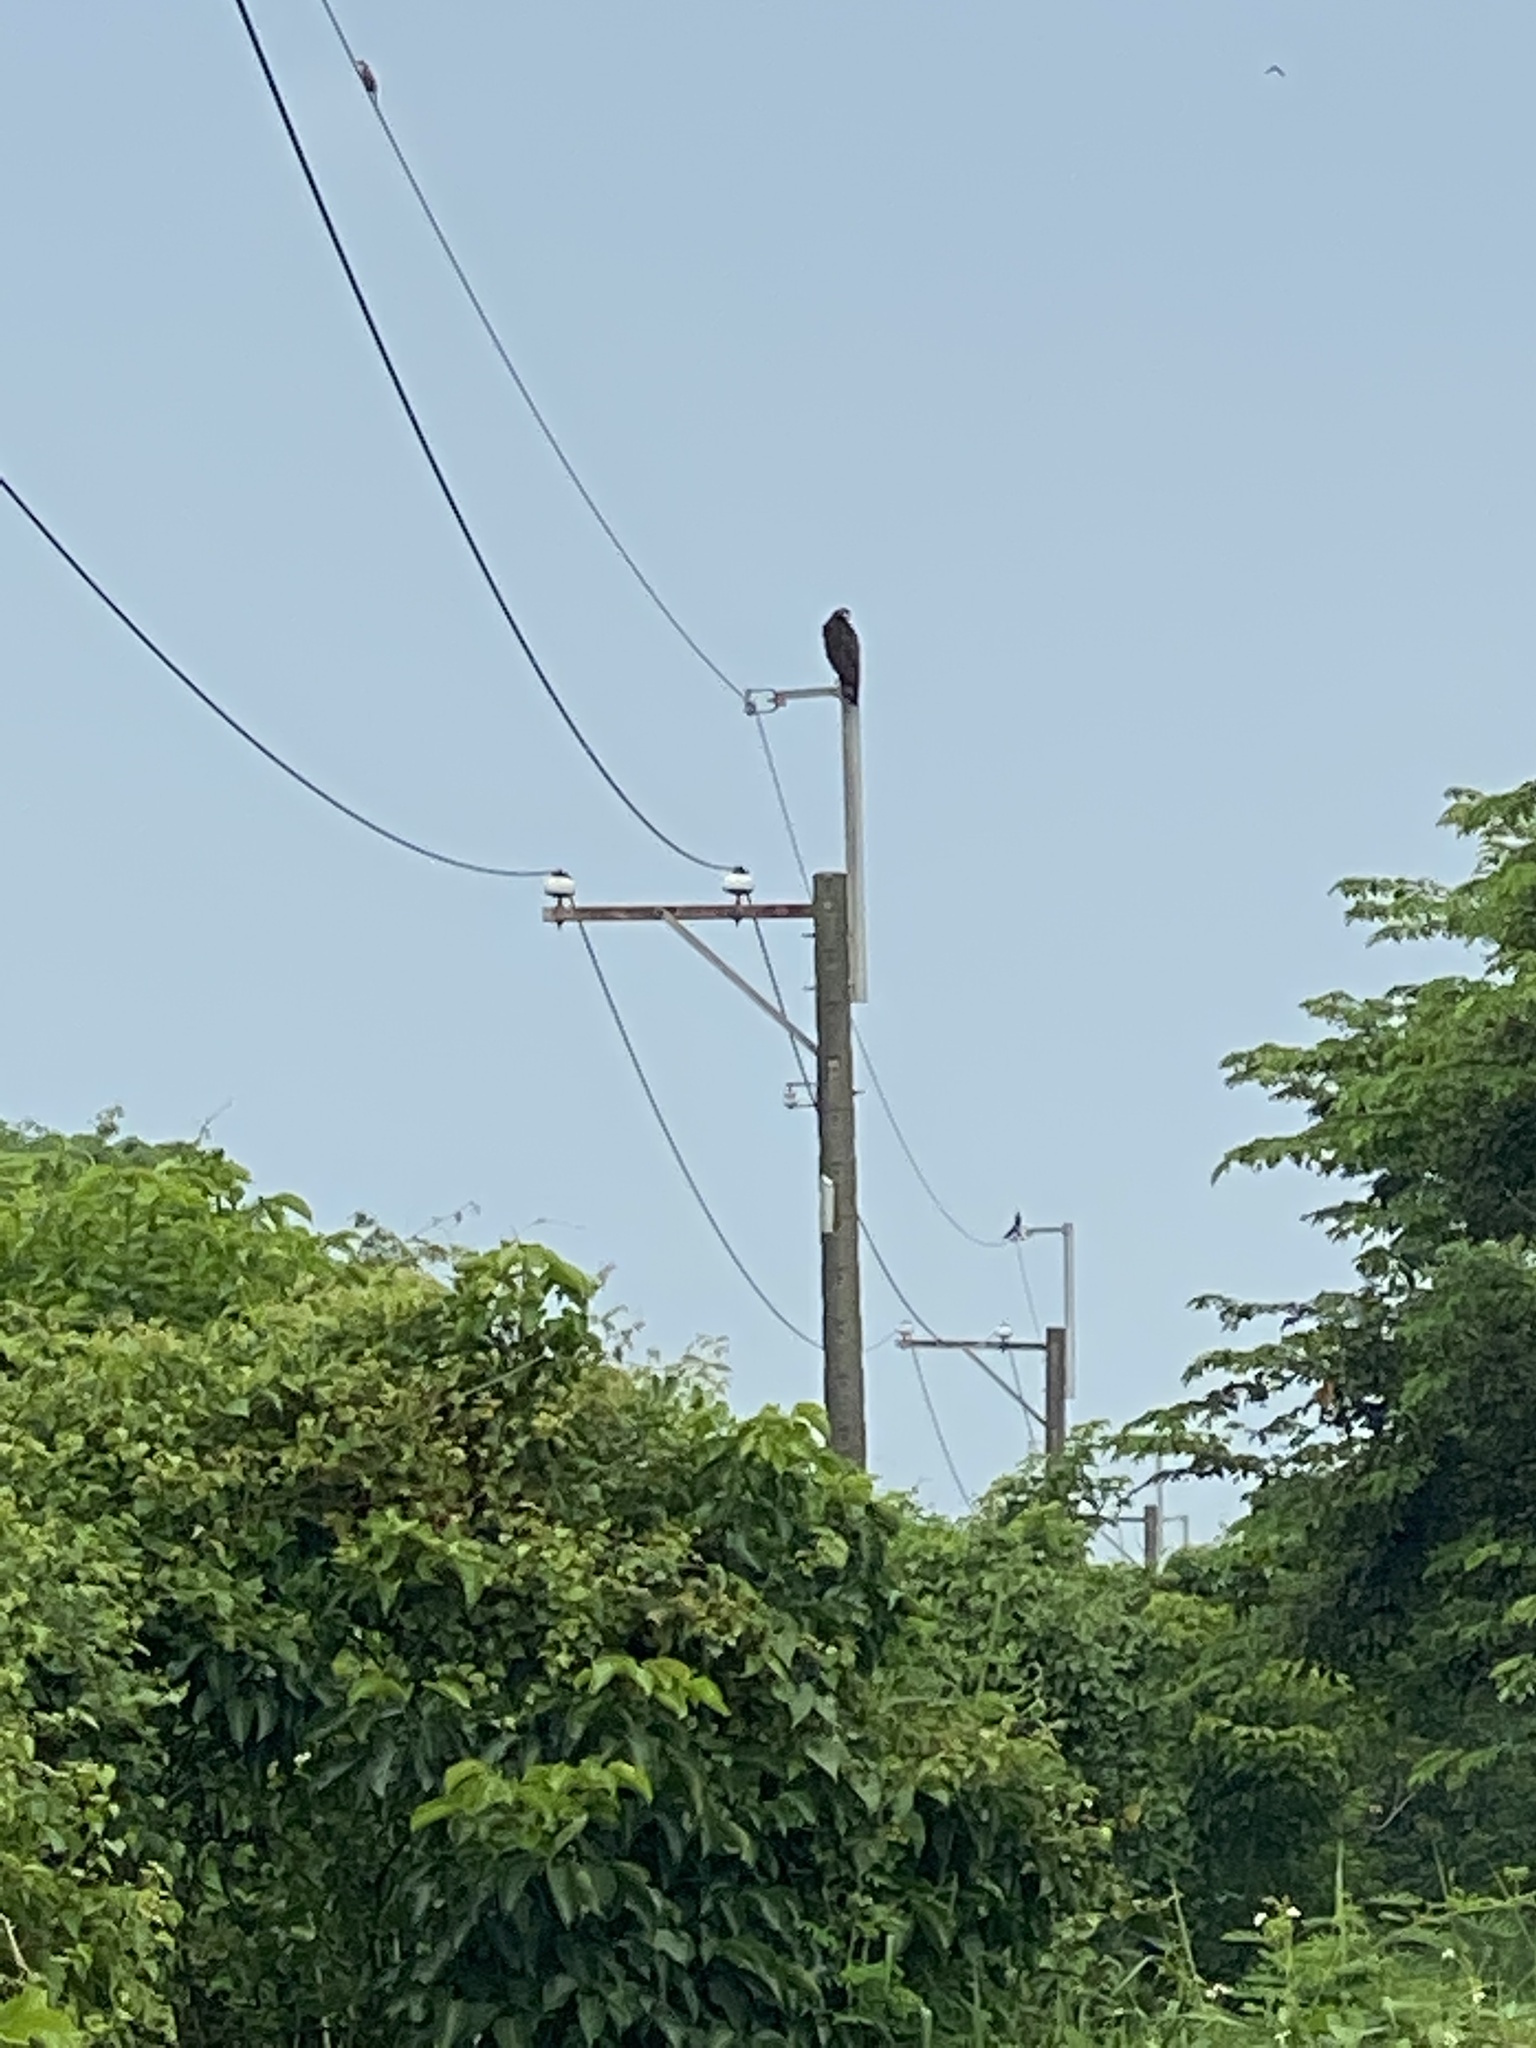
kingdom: Animalia
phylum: Chordata
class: Aves
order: Accipitriformes
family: Accipitridae
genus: Spilornis
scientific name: Spilornis cheela
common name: Crested serpent eagle
